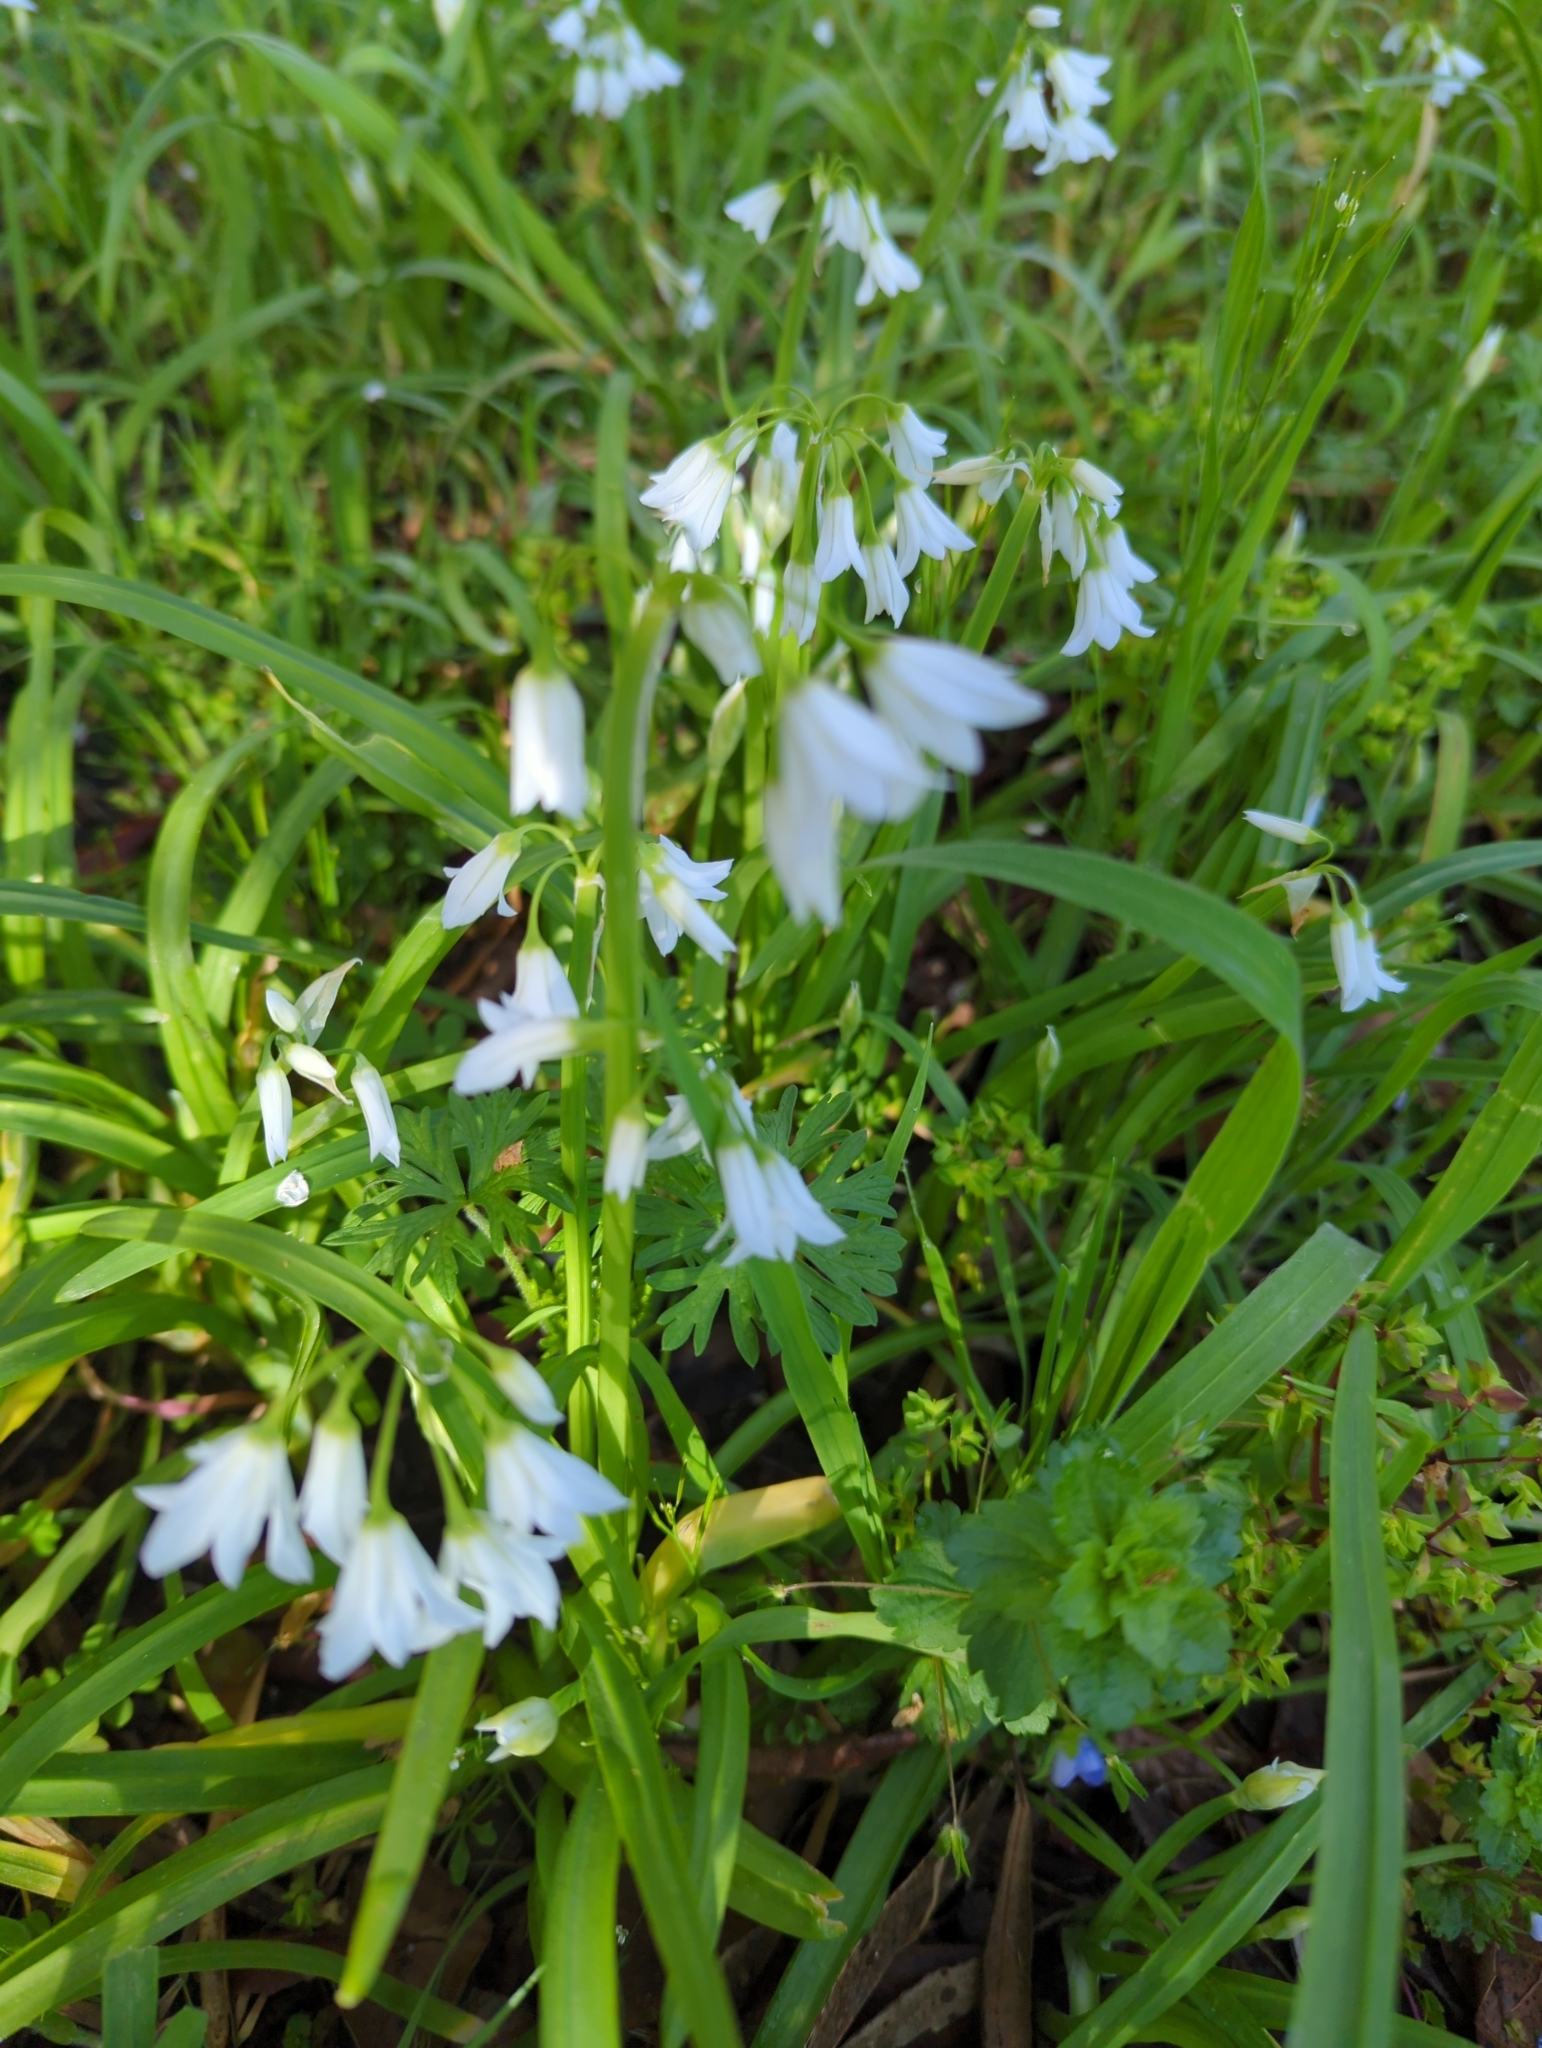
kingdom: Plantae
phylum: Tracheophyta
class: Liliopsida
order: Asparagales
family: Amaryllidaceae
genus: Allium
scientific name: Allium triquetrum
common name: Three-cornered garlic
